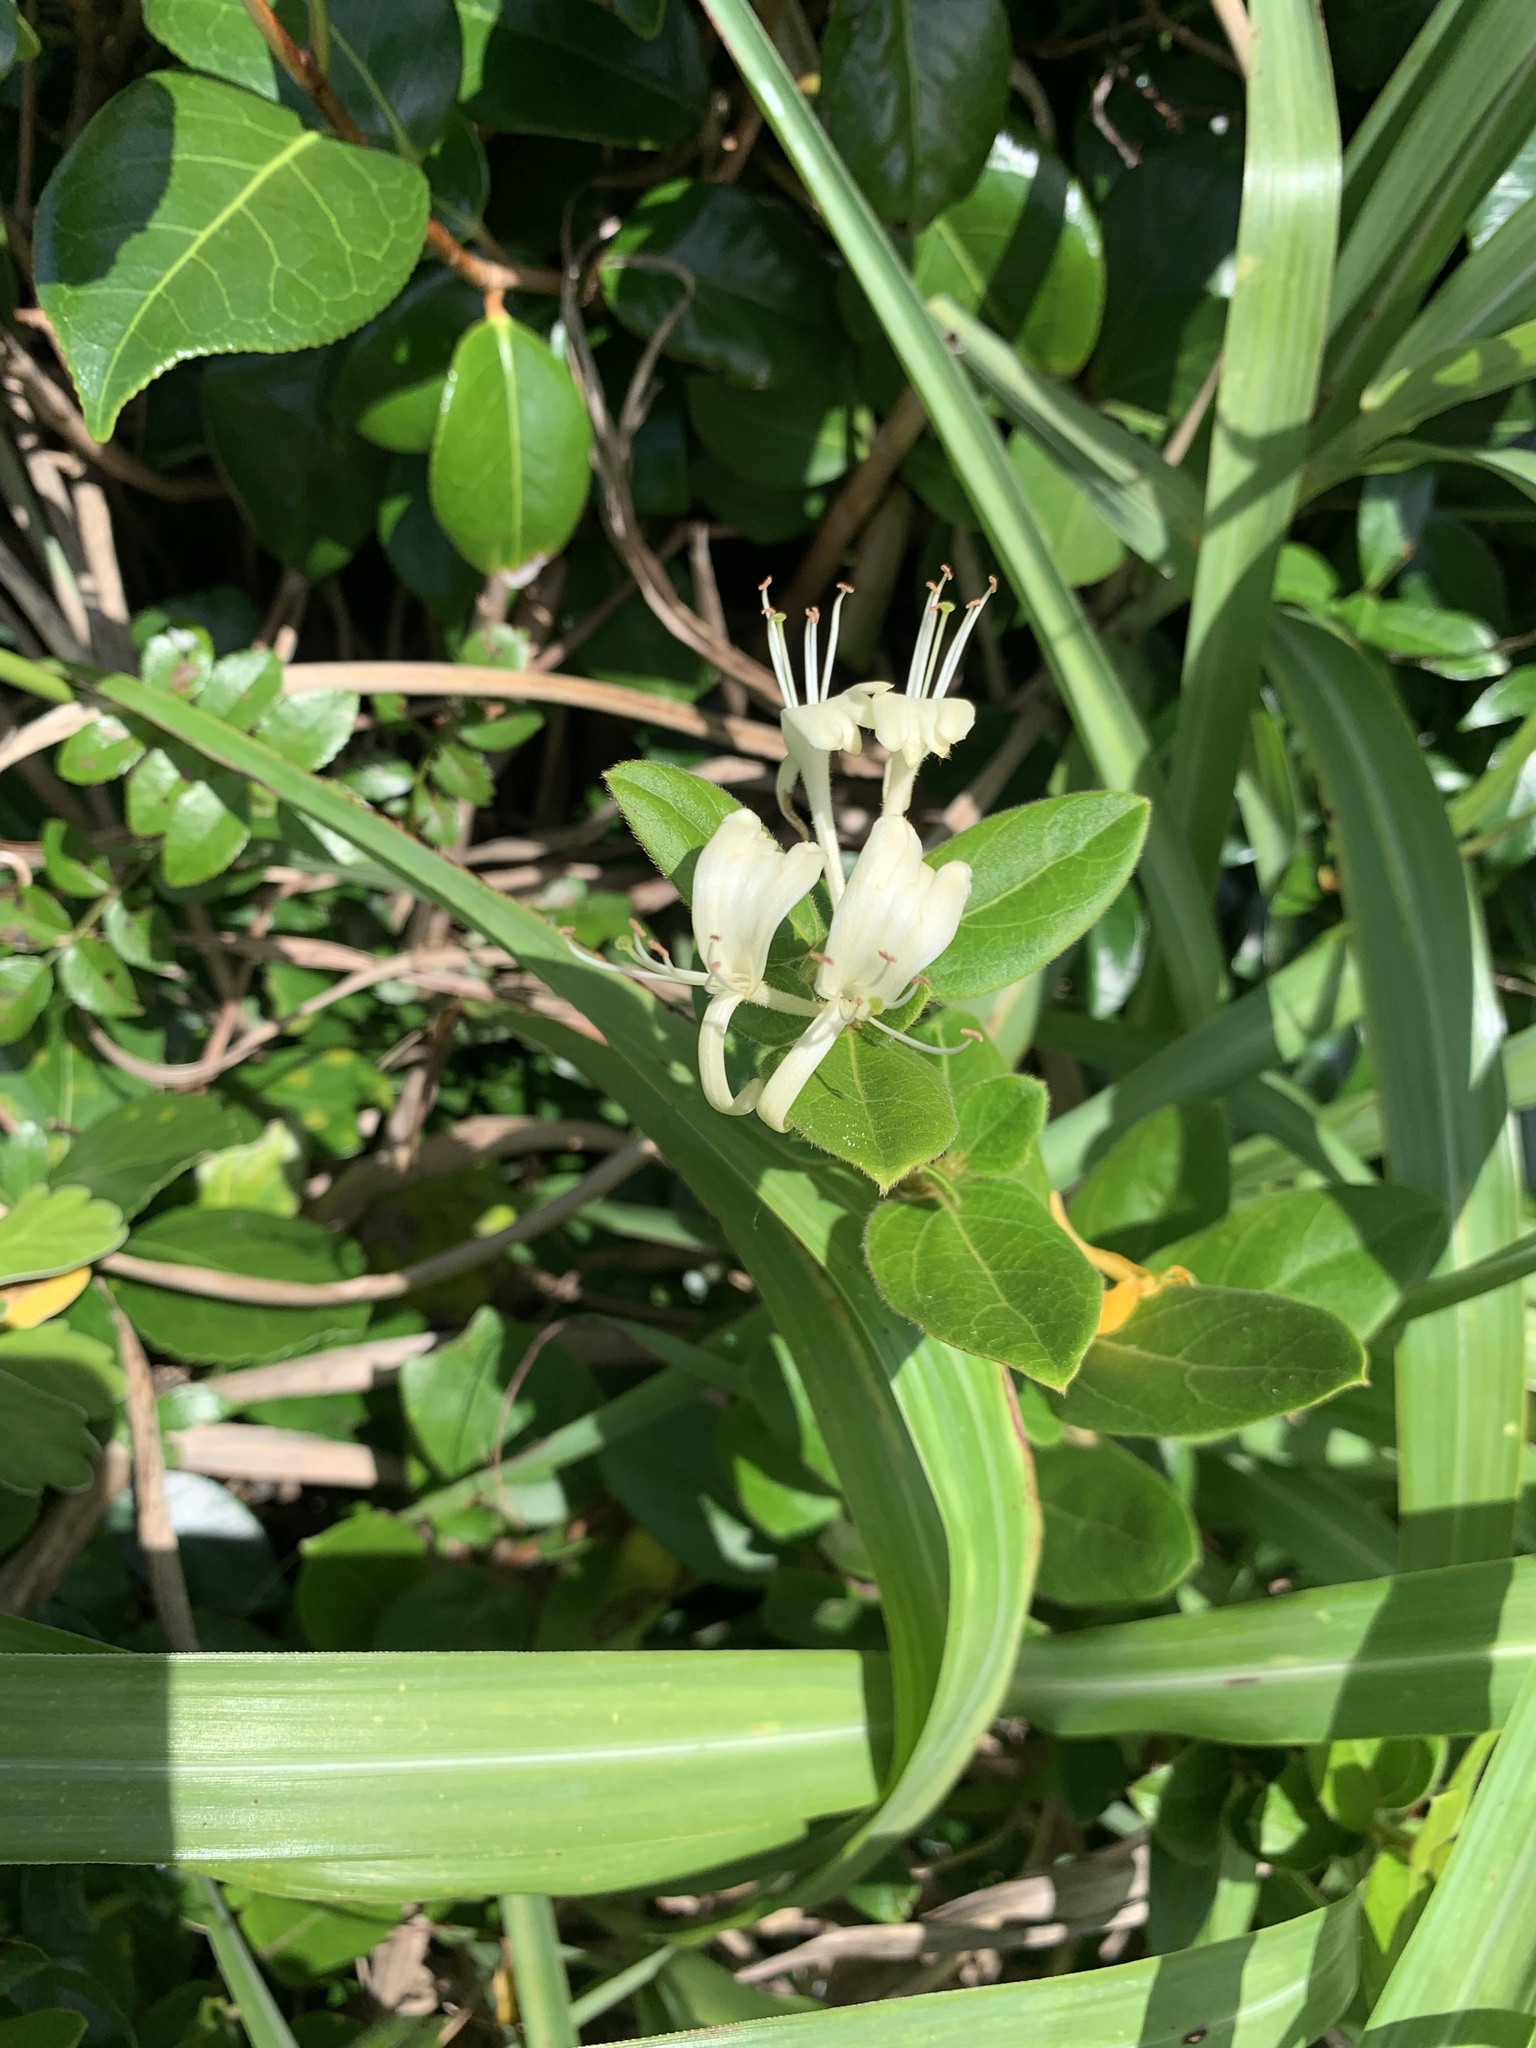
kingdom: Plantae
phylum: Tracheophyta
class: Magnoliopsida
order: Dipsacales
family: Caprifoliaceae
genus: Lonicera
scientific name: Lonicera japonica
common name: Japanese honeysuckle
